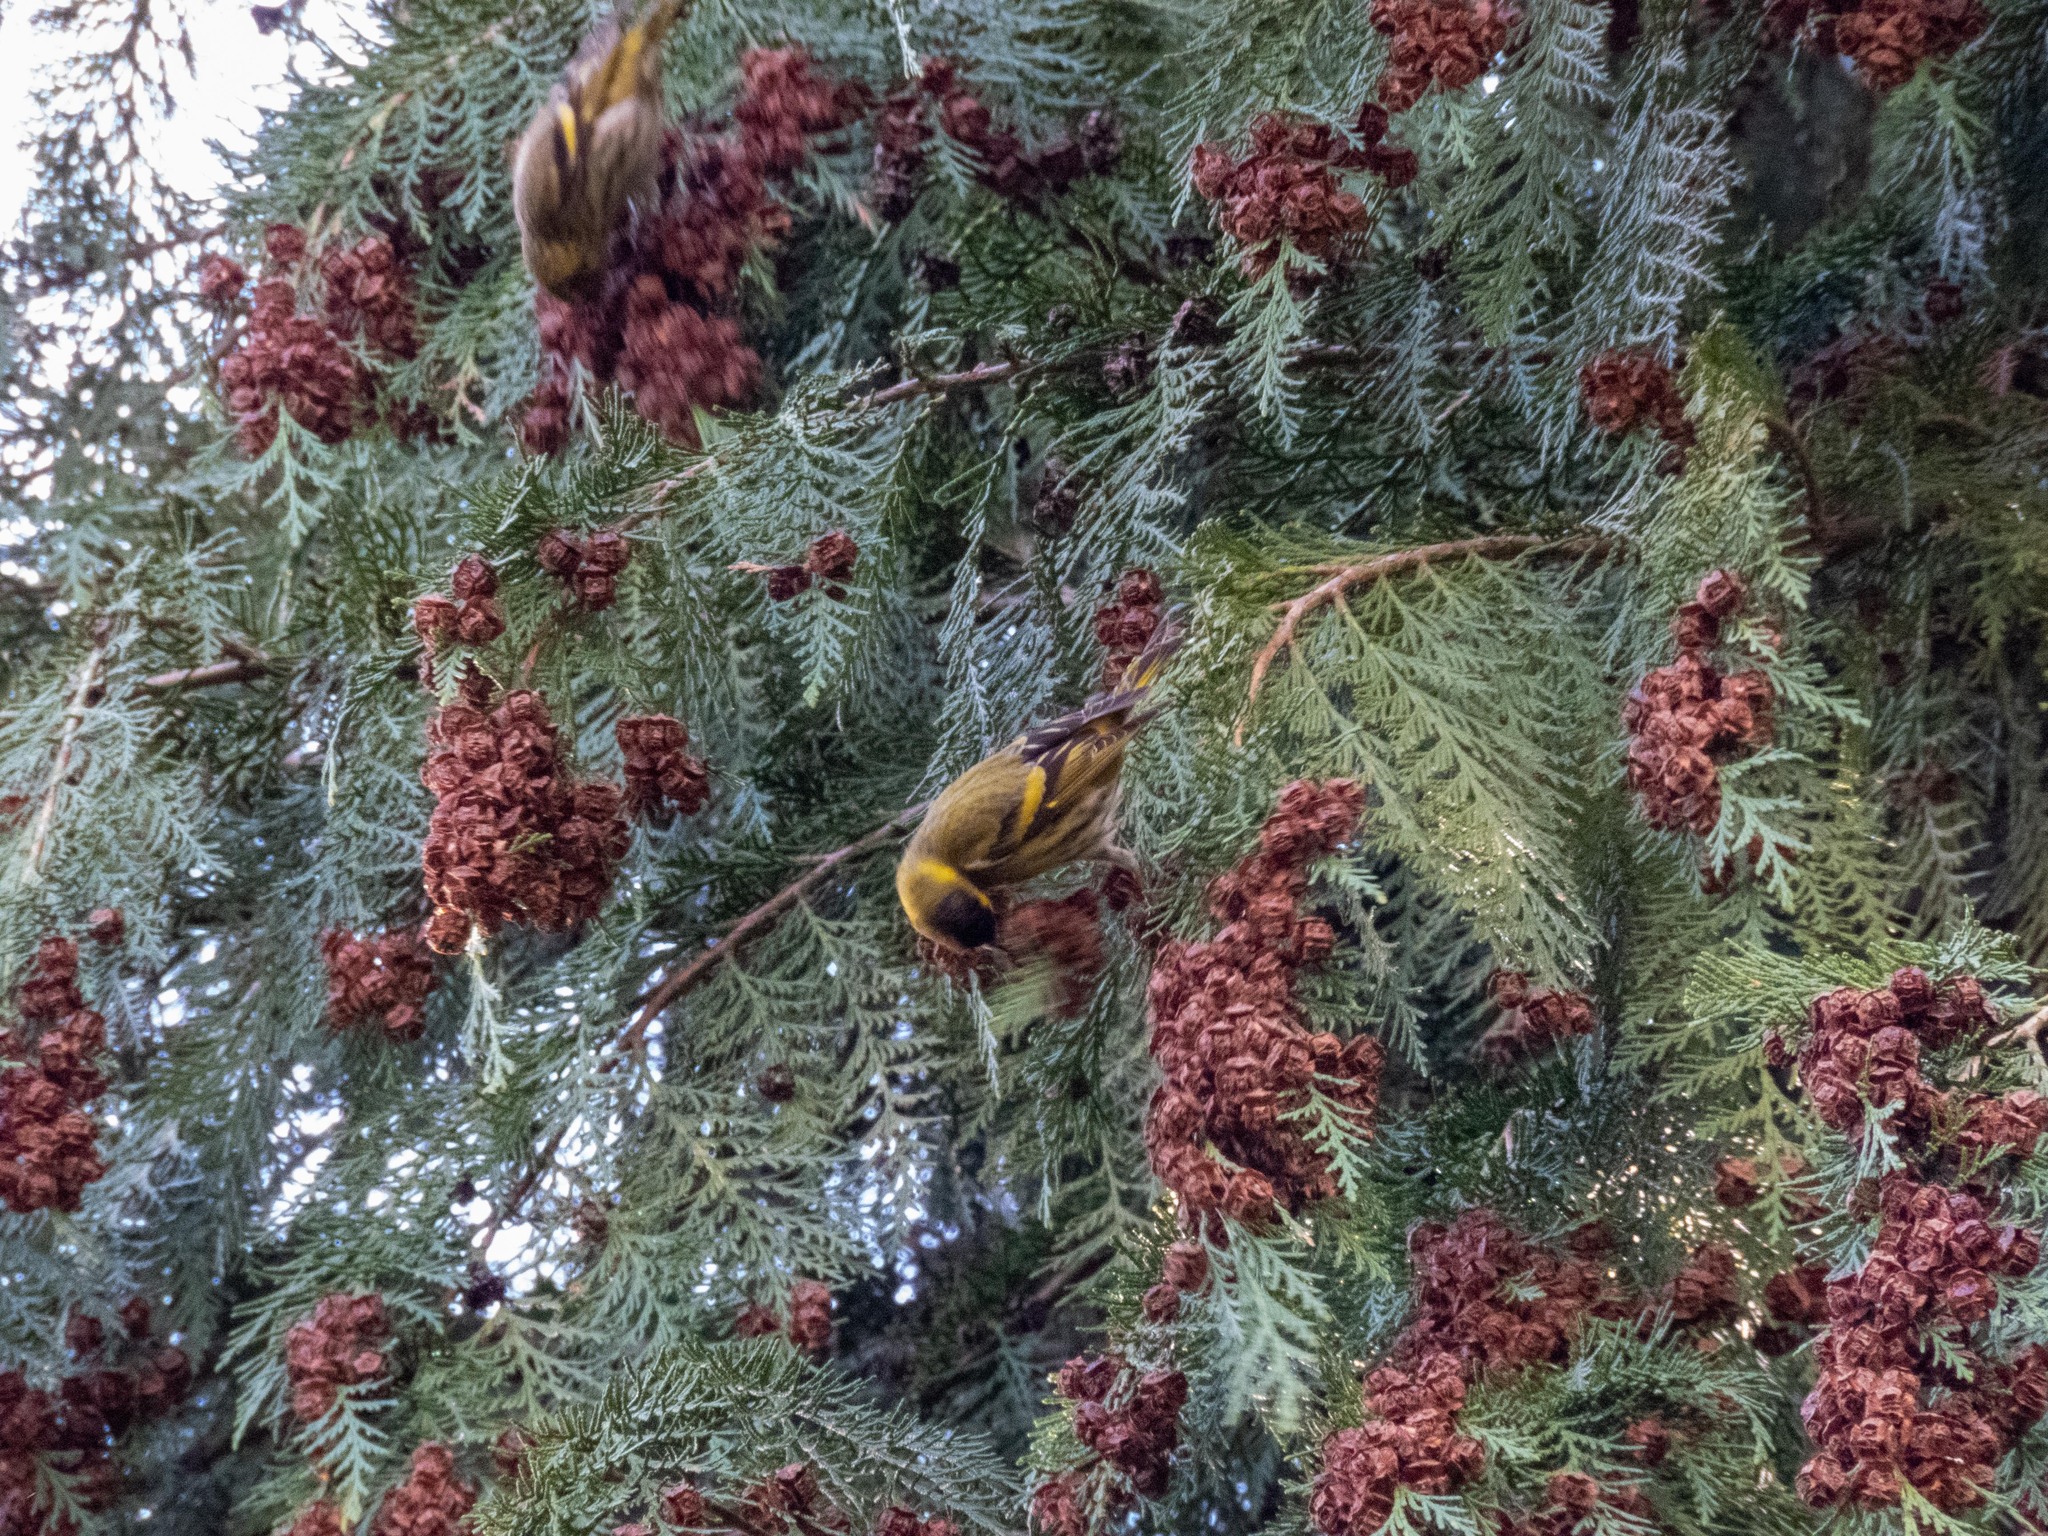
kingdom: Animalia
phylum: Chordata
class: Aves
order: Passeriformes
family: Fringillidae
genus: Spinus
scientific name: Spinus spinus
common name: Eurasian siskin
